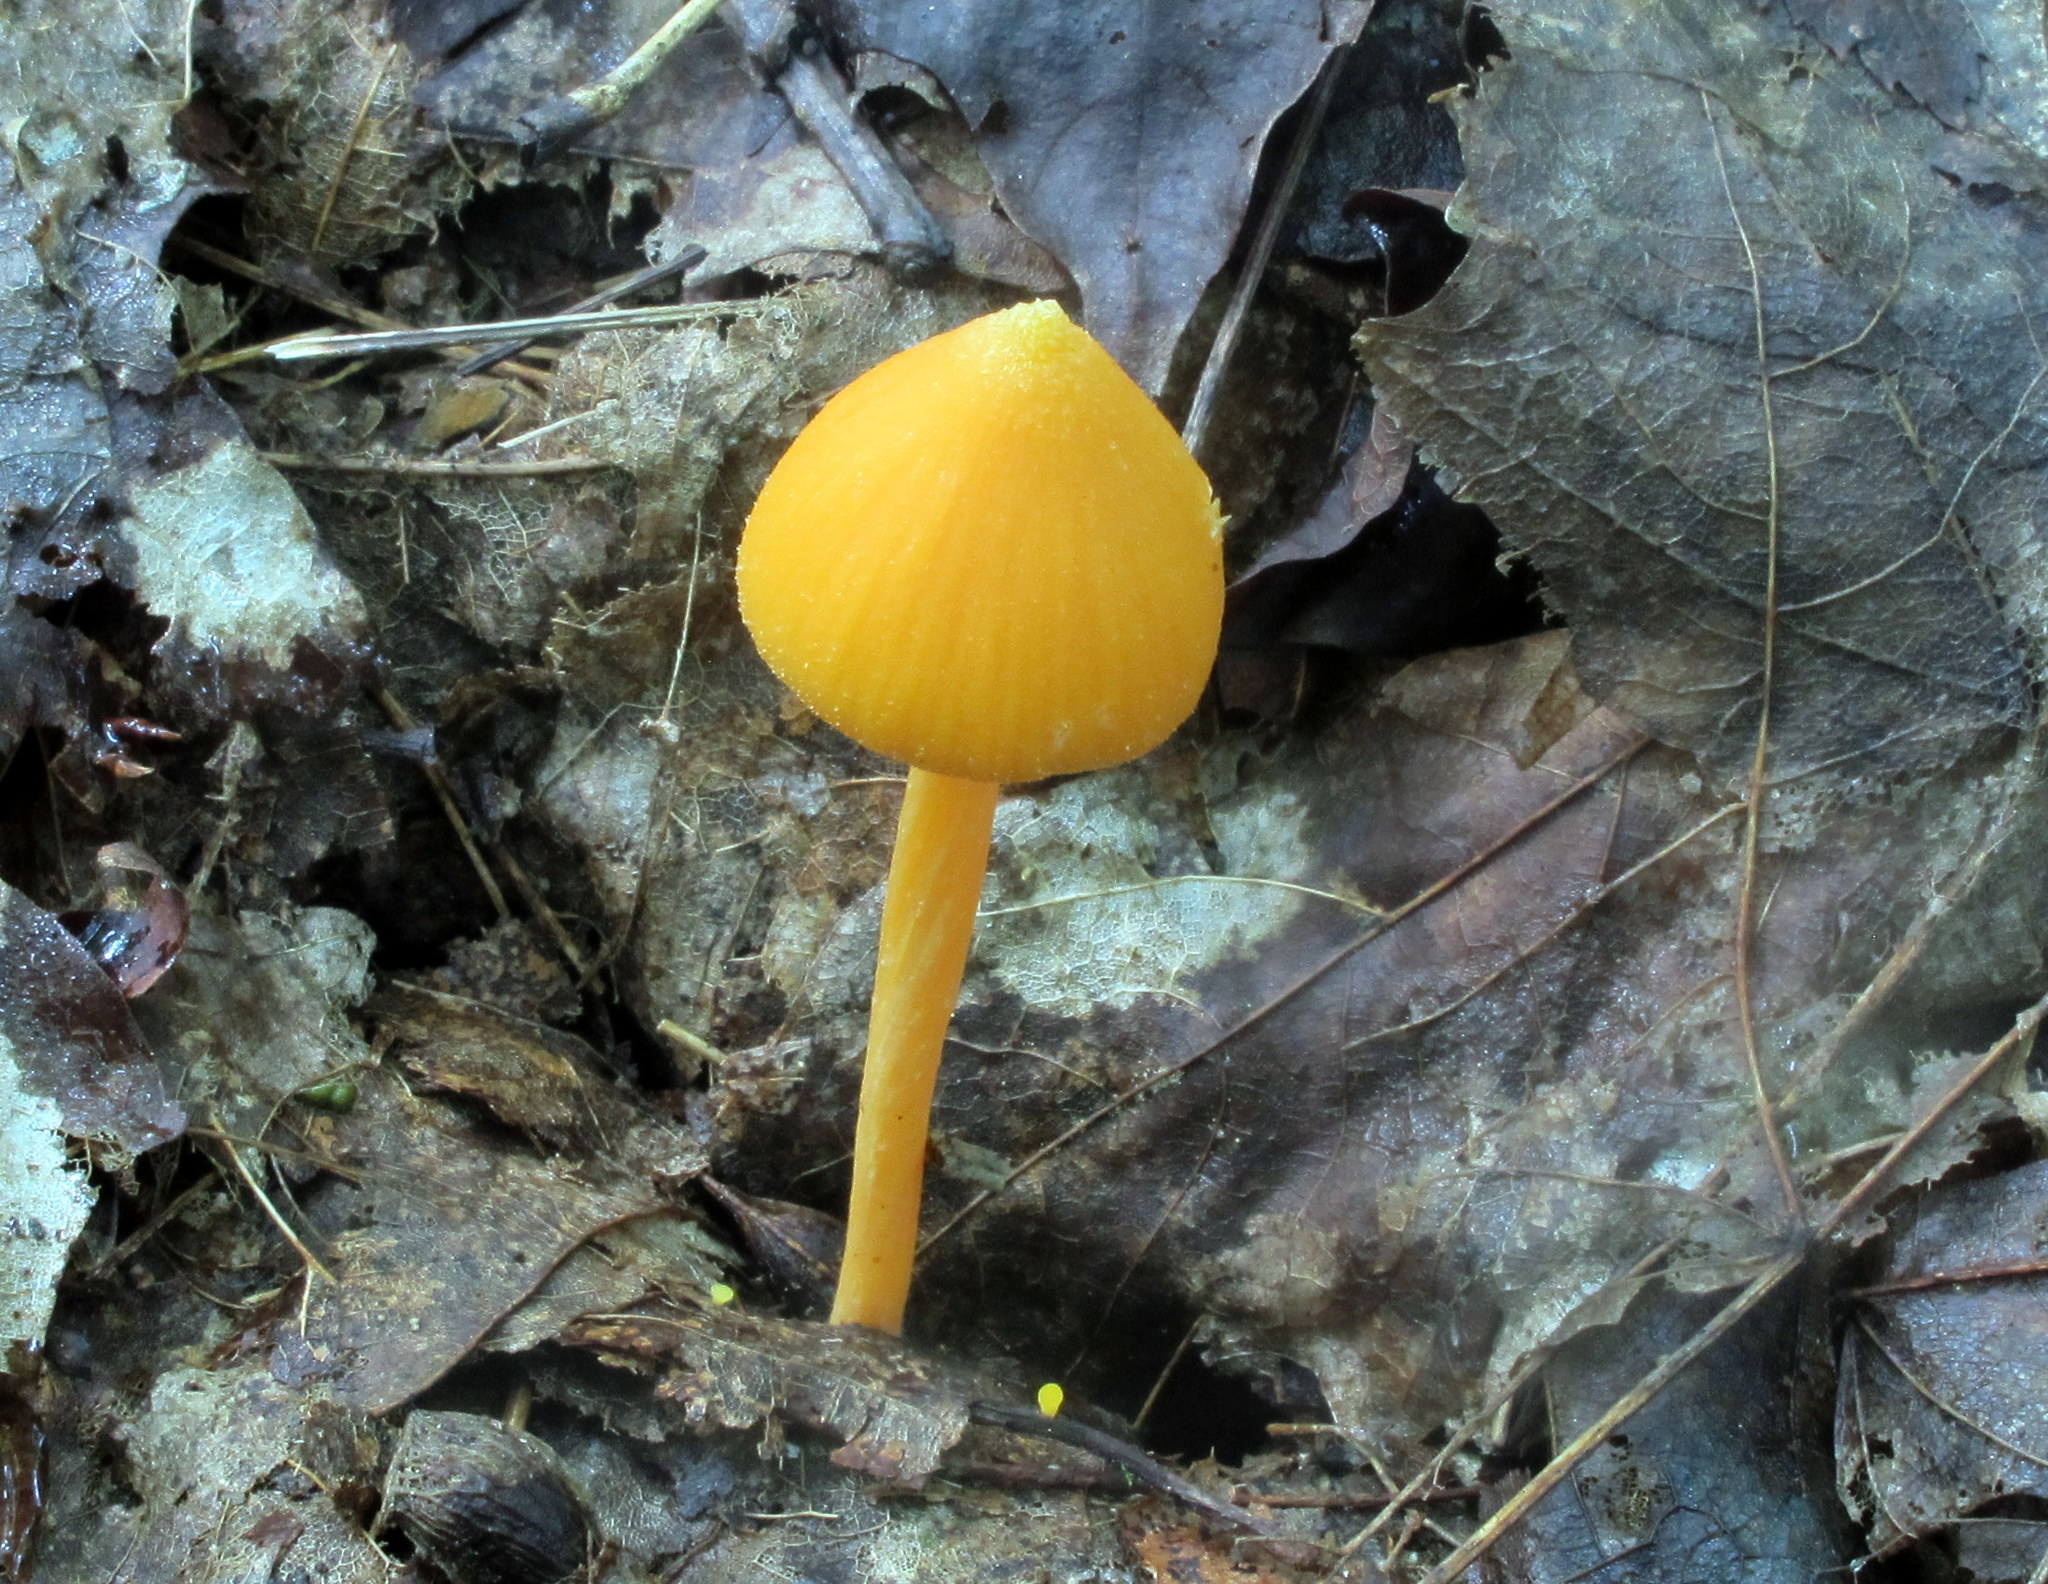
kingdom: Fungi
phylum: Basidiomycota
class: Agaricomycetes
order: Agaricales
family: Entolomataceae
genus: Entoloma
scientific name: Entoloma quadratum
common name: Salmon pinkgill
